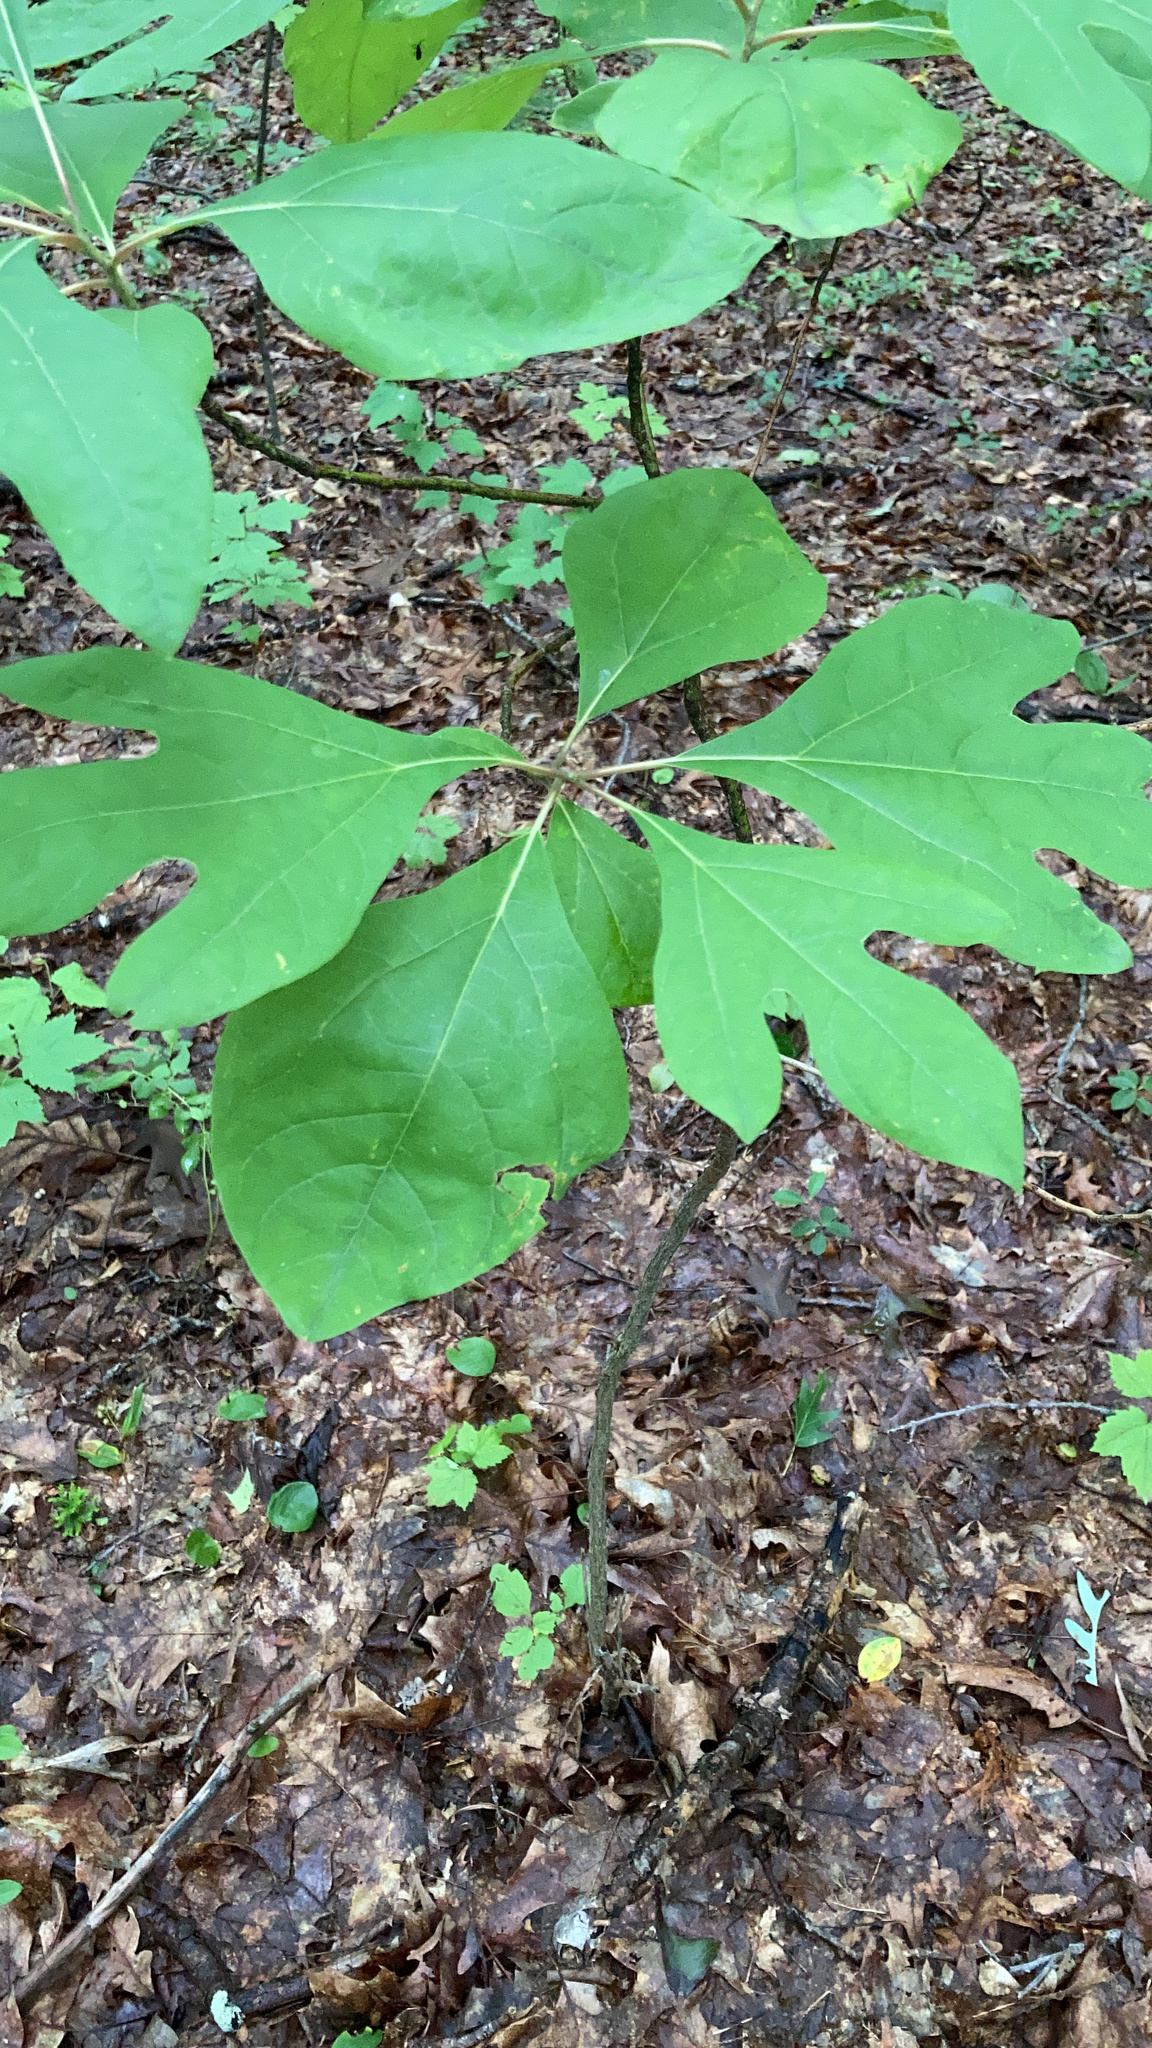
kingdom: Plantae
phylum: Tracheophyta
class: Magnoliopsida
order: Laurales
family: Lauraceae
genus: Sassafras
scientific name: Sassafras albidum
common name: Sassafras
